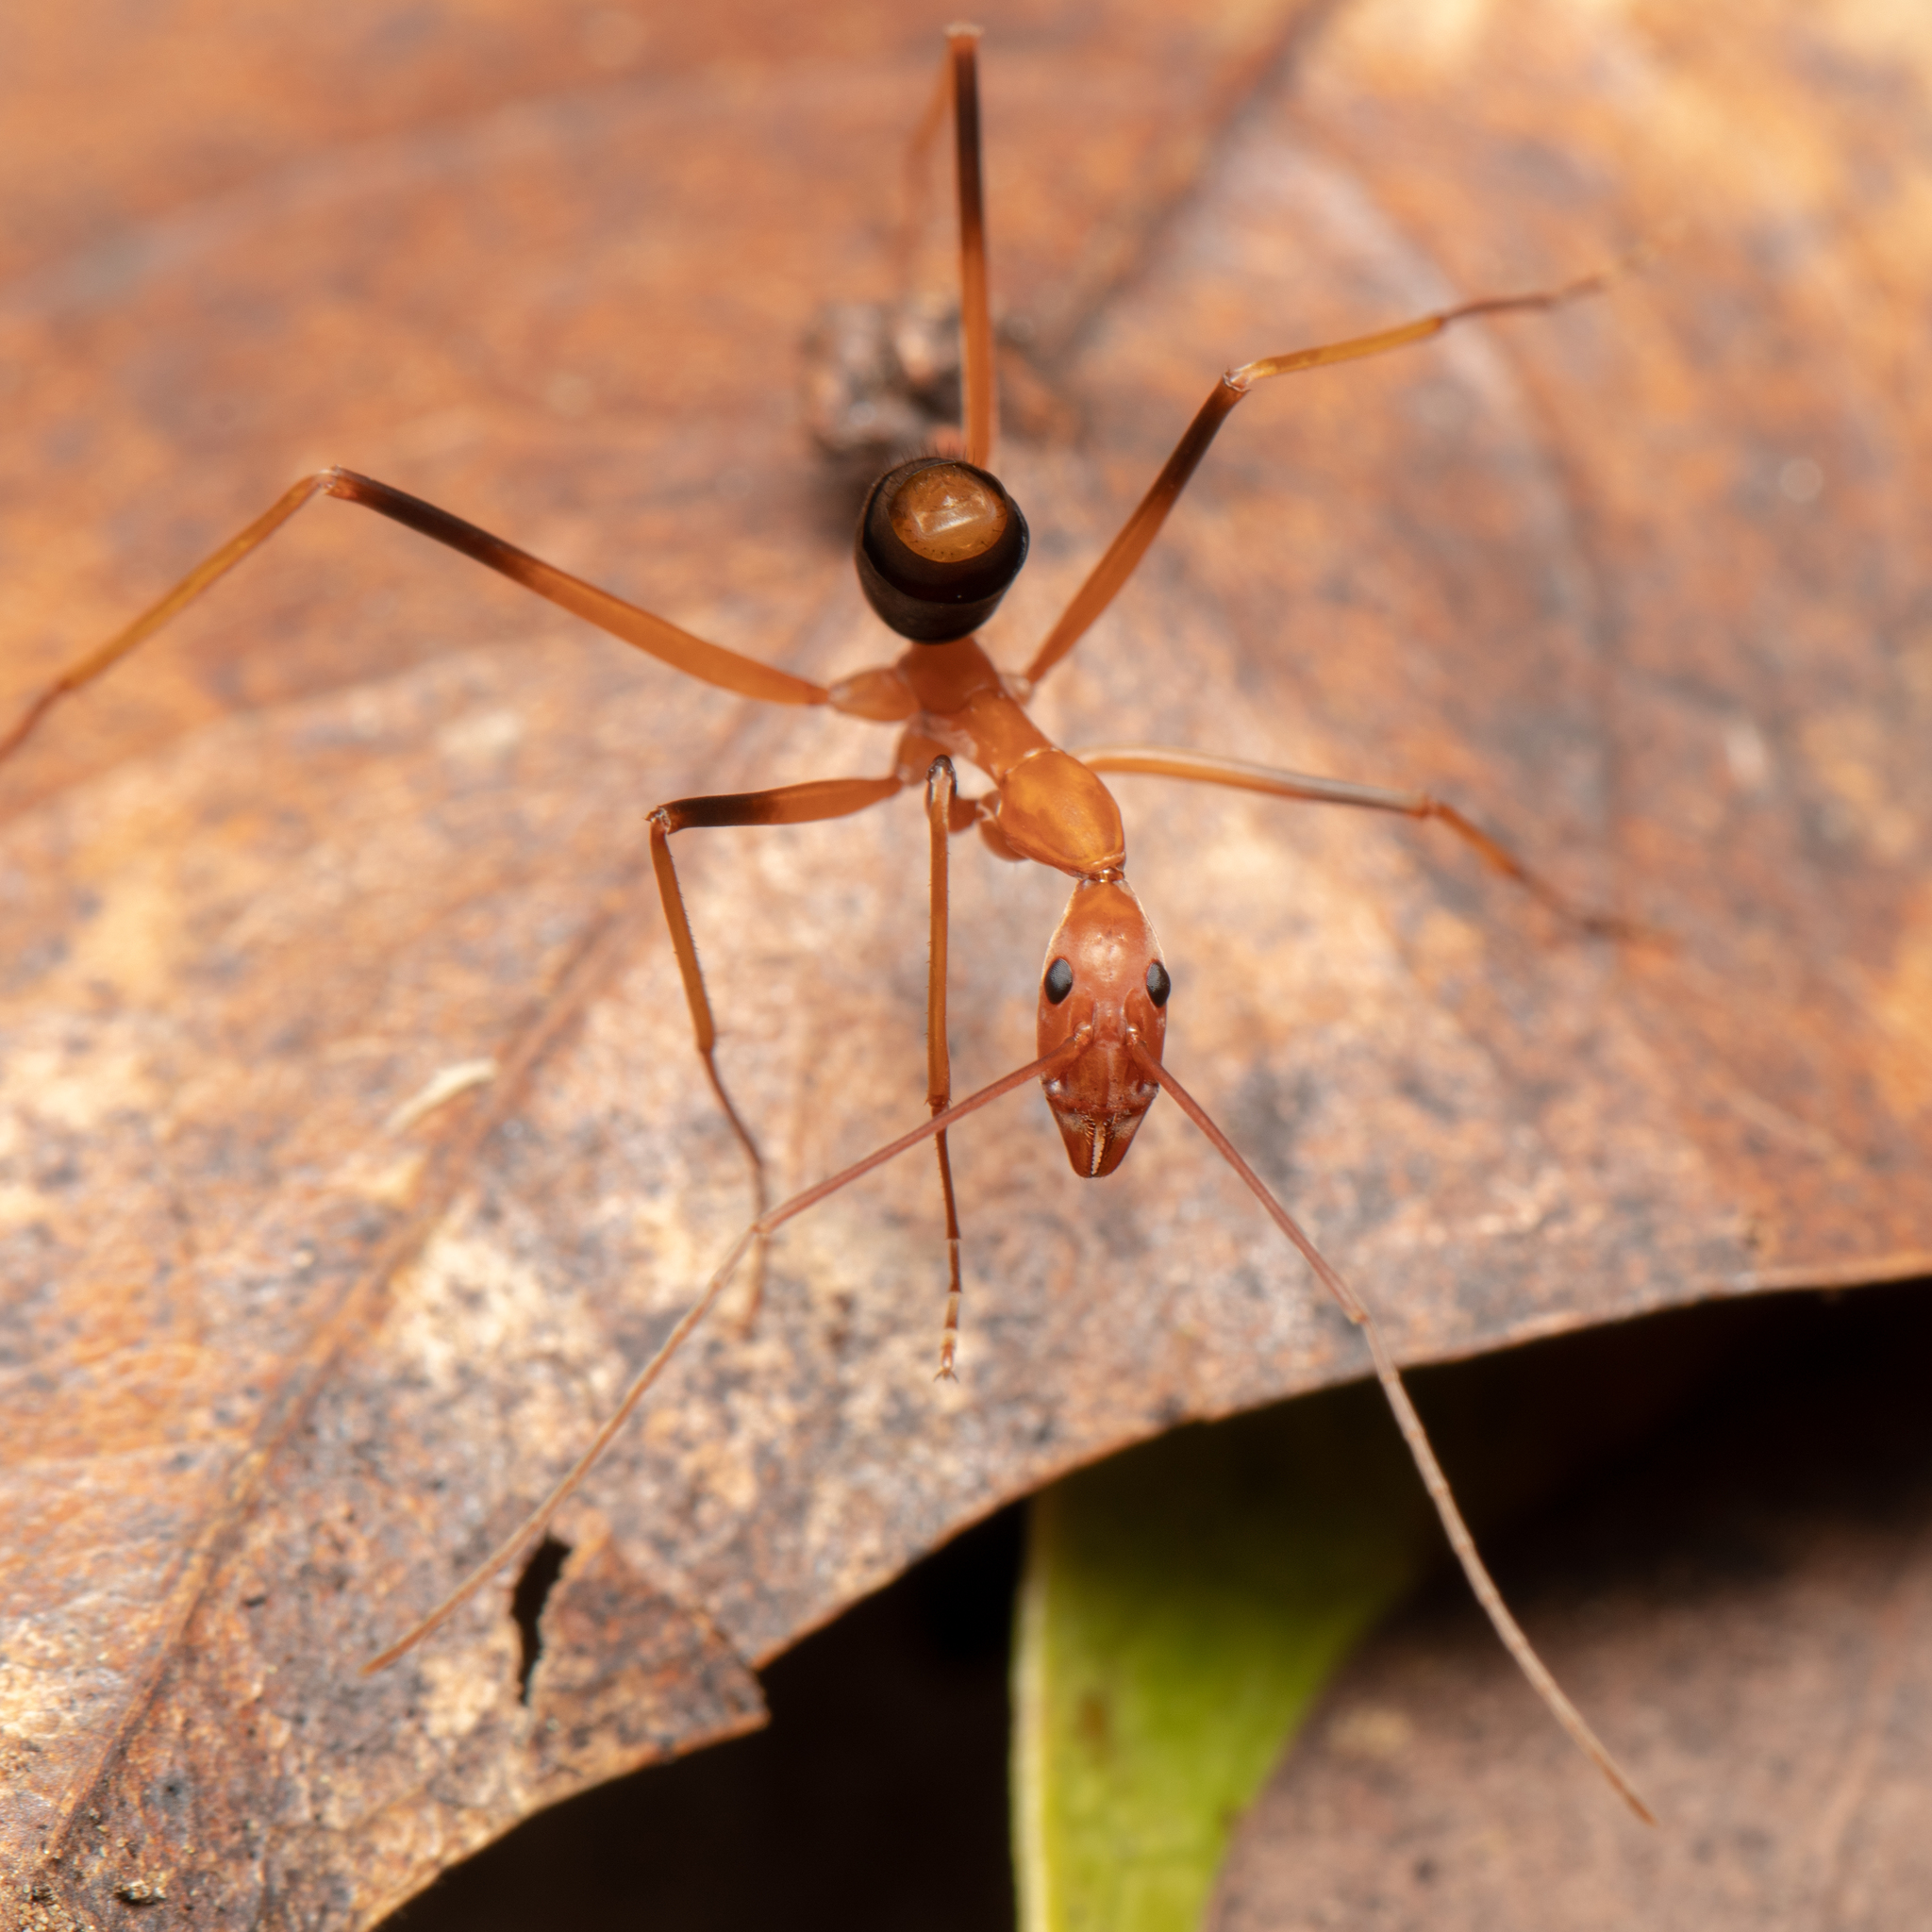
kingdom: Animalia
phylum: Arthropoda
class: Insecta
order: Hymenoptera
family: Formicidae
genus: Leptomyrmex
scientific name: Leptomyrmex rufipes
